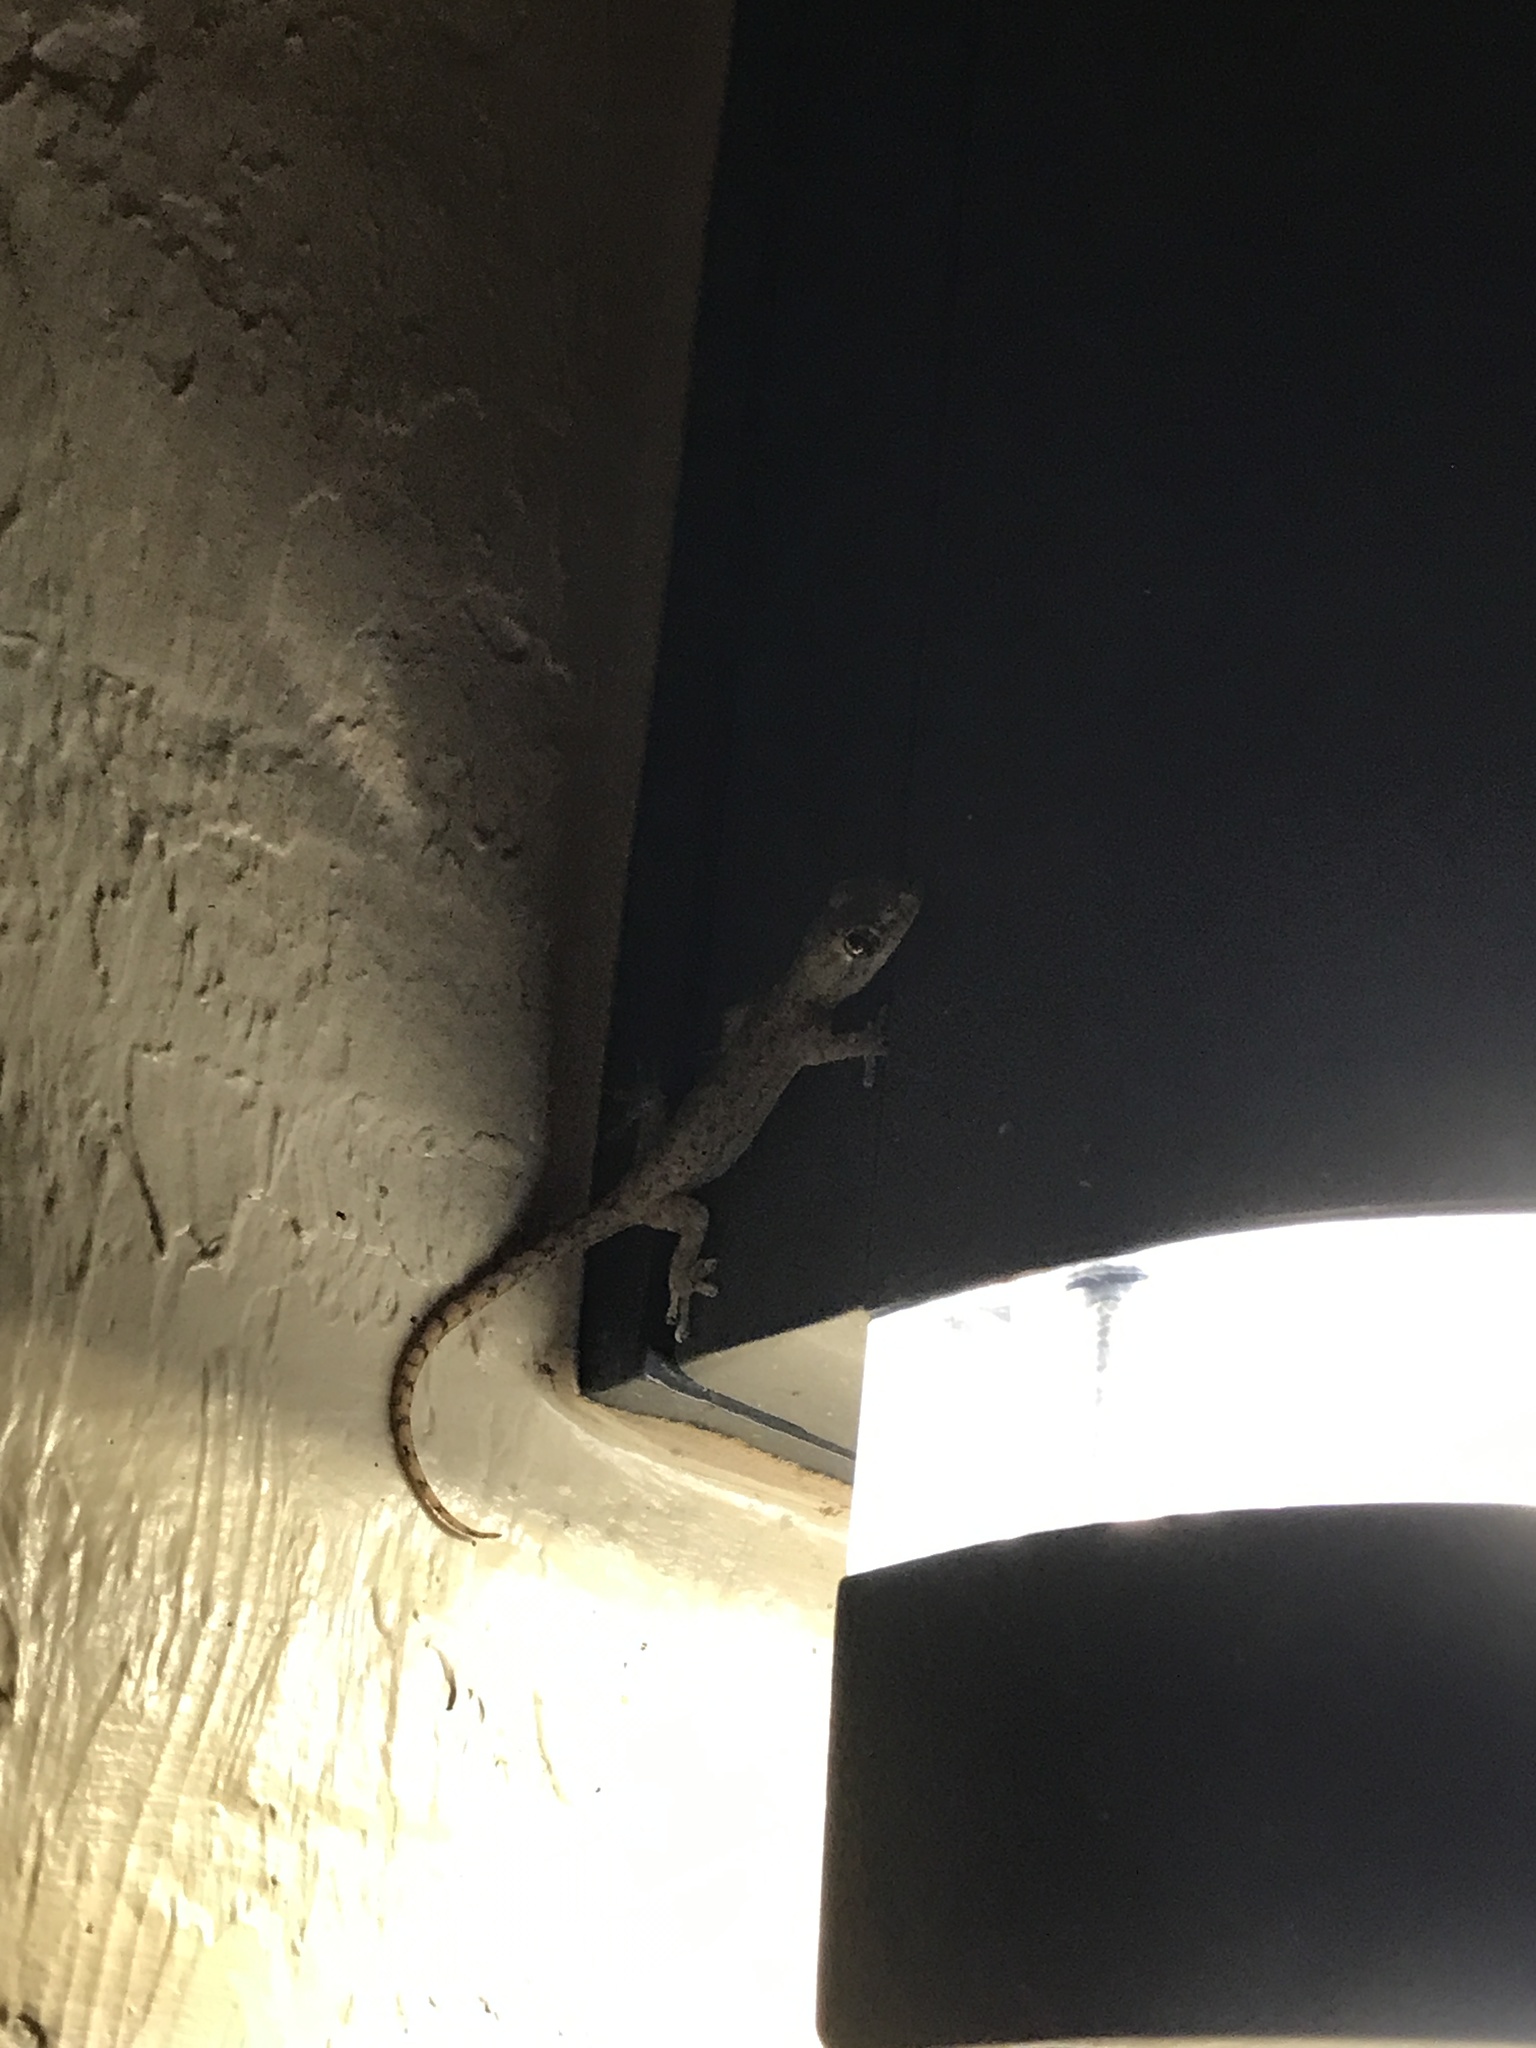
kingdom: Animalia
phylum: Chordata
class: Squamata
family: Gekkonidae
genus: Hemidactylus
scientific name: Hemidactylus frenatus
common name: Common house gecko
